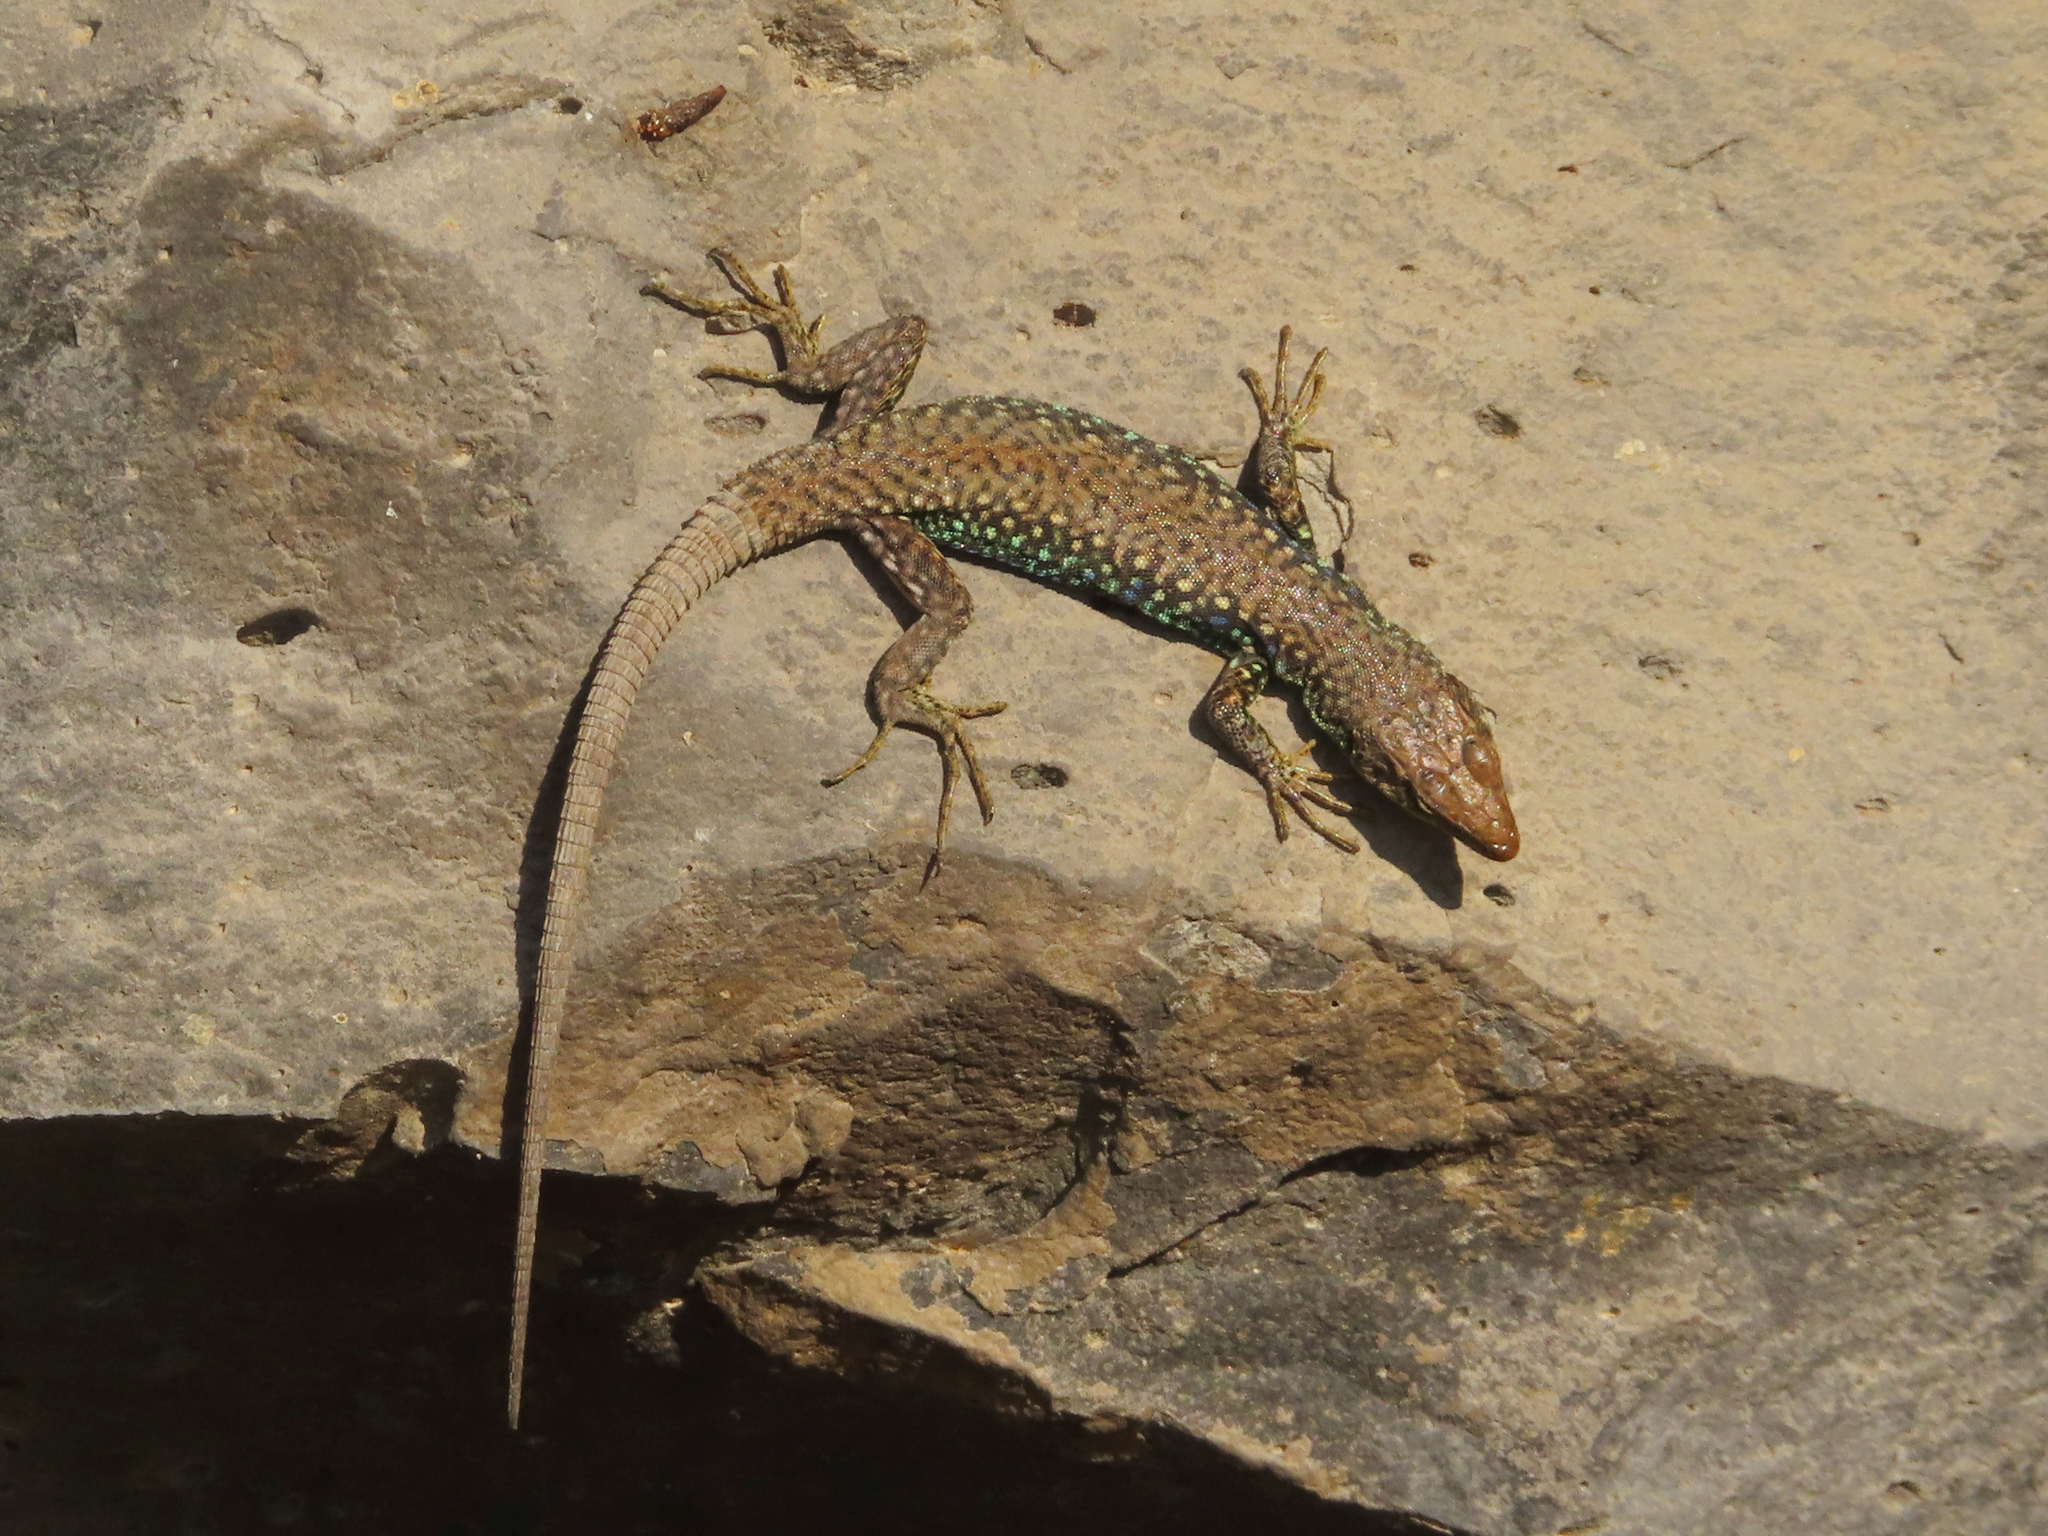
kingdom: Animalia
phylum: Chordata
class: Squamata
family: Lacertidae
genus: Darevskia
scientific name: Darevskia
